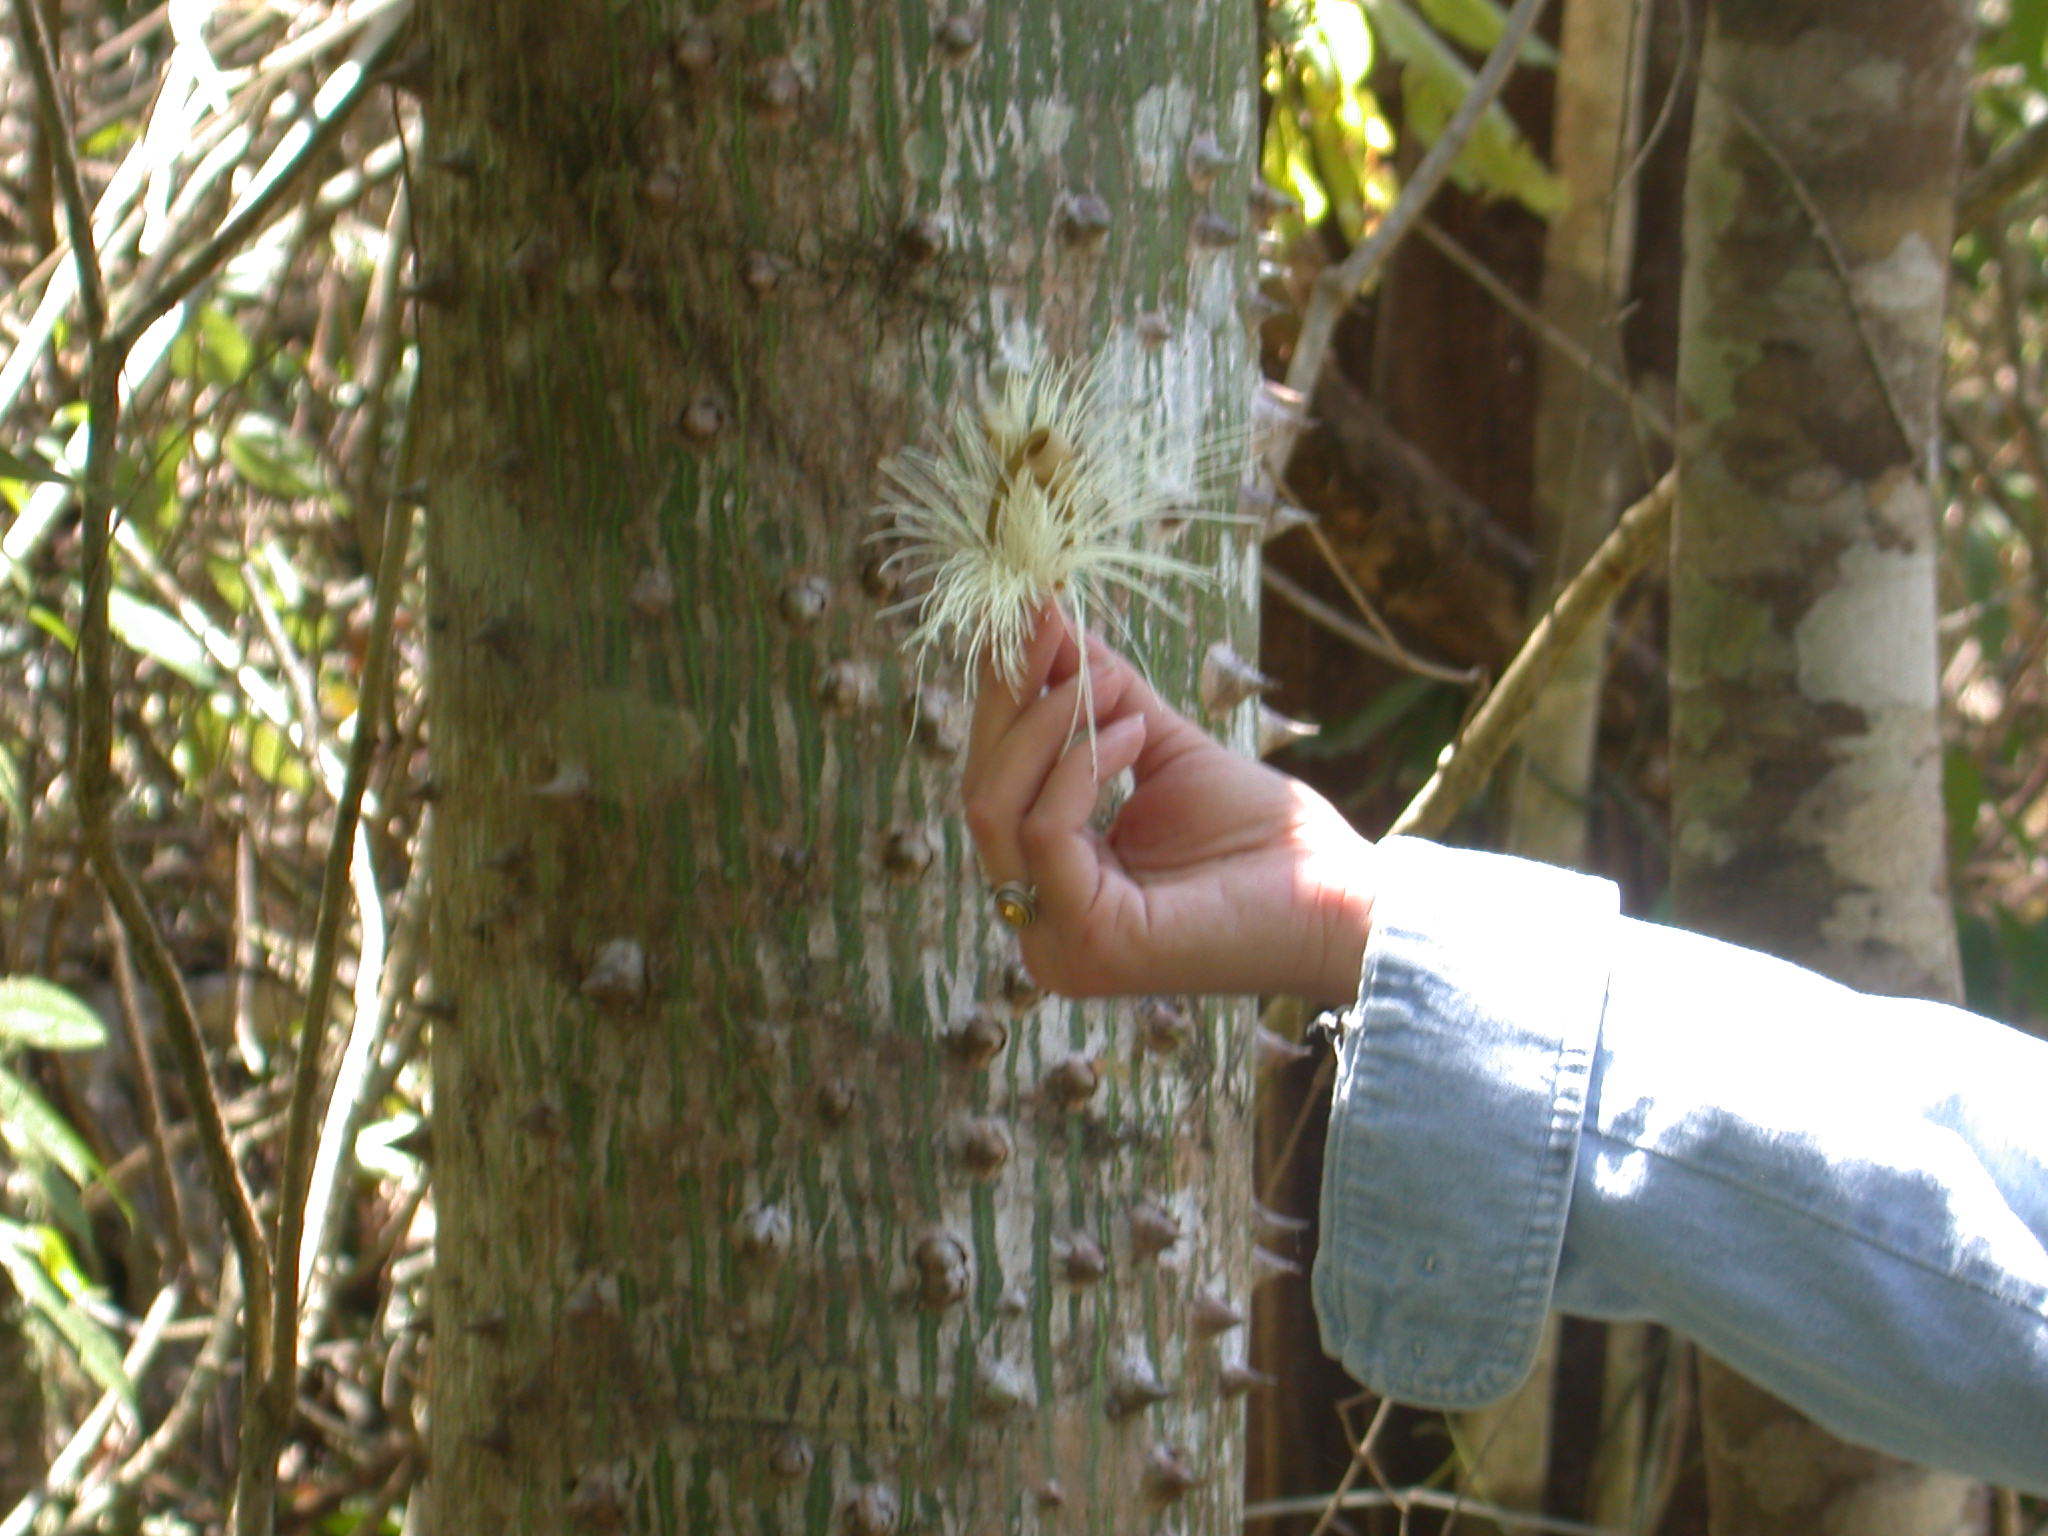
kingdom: Plantae
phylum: Tracheophyta
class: Magnoliopsida
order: Malvales
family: Malvaceae
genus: Ceiba
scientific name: Ceiba pentandra
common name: Kapok
